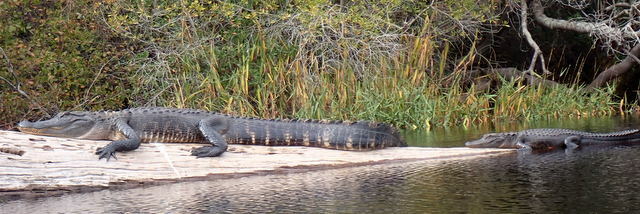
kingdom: Animalia
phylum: Chordata
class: Crocodylia
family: Alligatoridae
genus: Alligator
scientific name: Alligator mississippiensis
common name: American alligator
